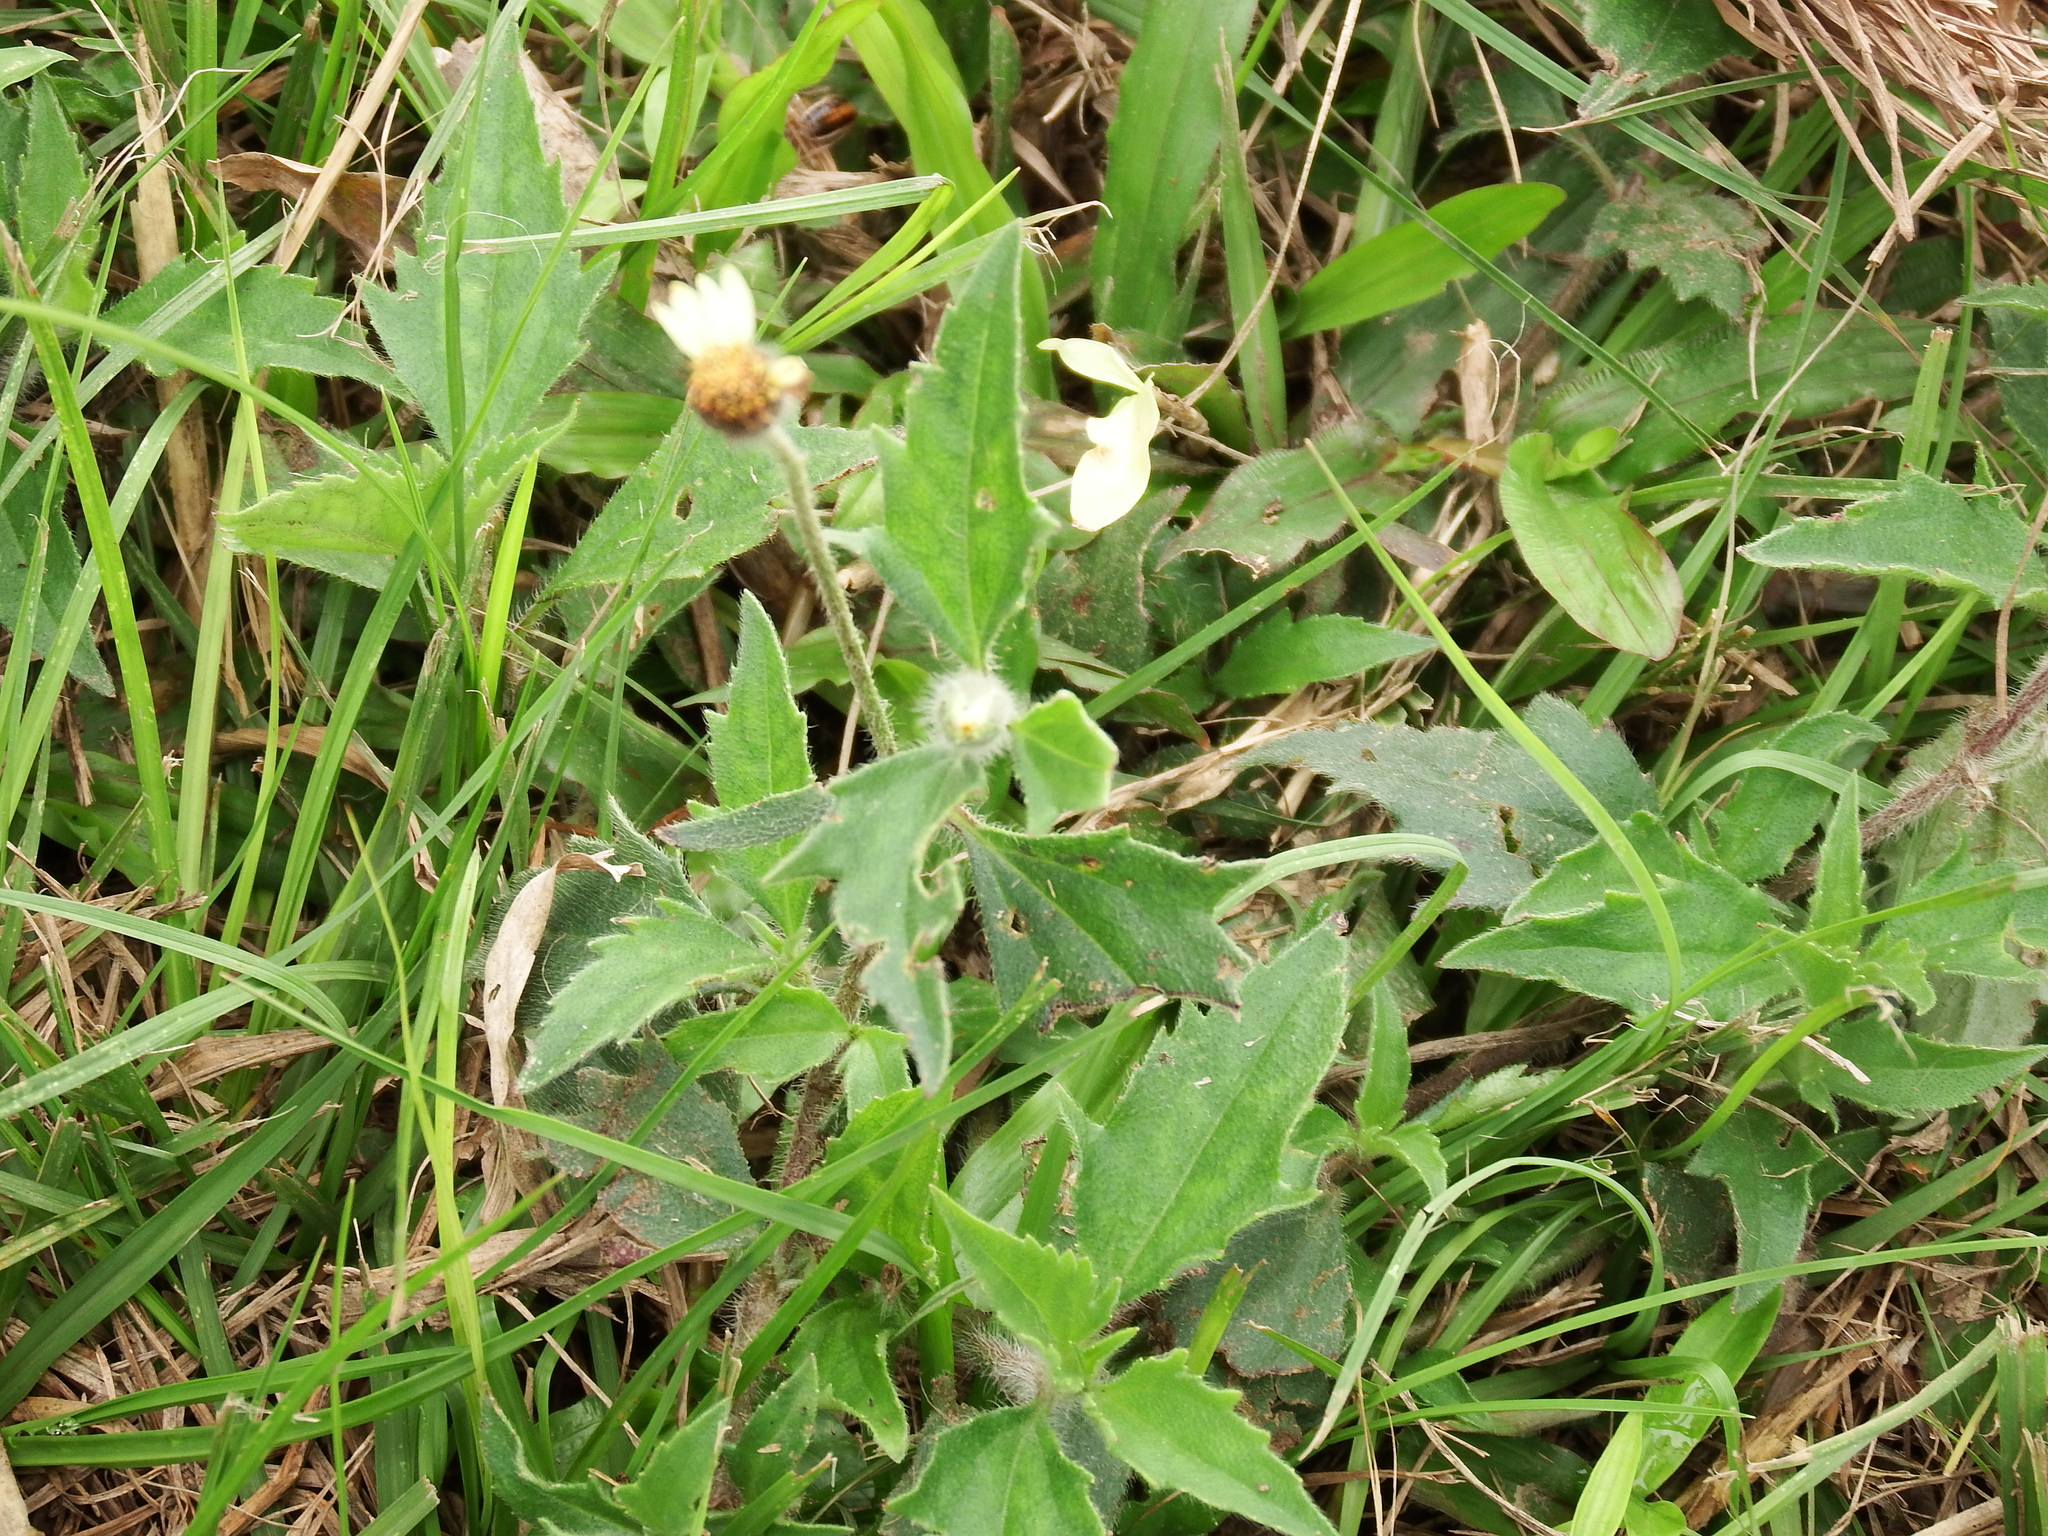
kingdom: Plantae
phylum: Tracheophyta
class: Magnoliopsida
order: Asterales
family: Asteraceae
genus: Tridax
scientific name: Tridax procumbens
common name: Coatbuttons
